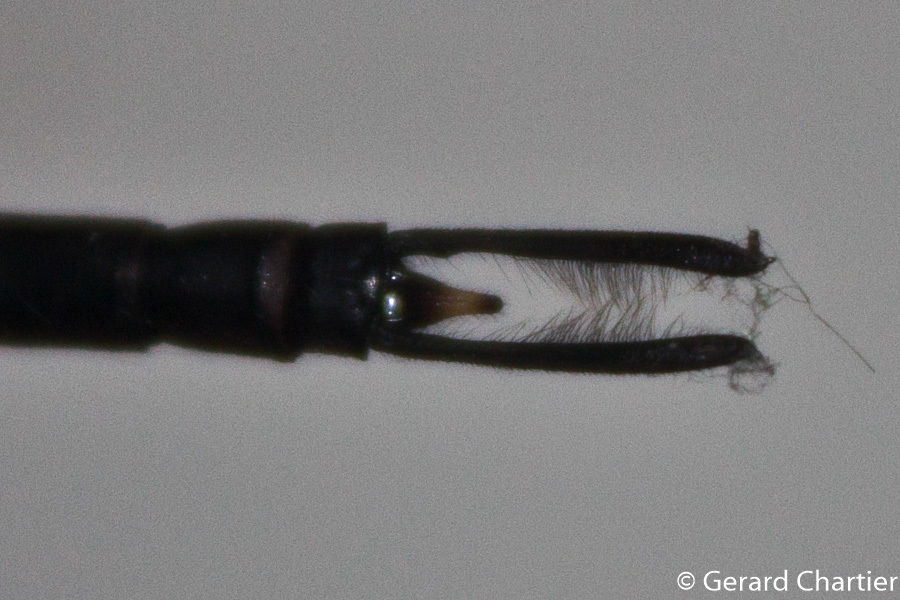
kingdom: Animalia
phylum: Arthropoda
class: Insecta
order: Odonata
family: Aeshnidae
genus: Gynacantha
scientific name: Gynacantha demeter
